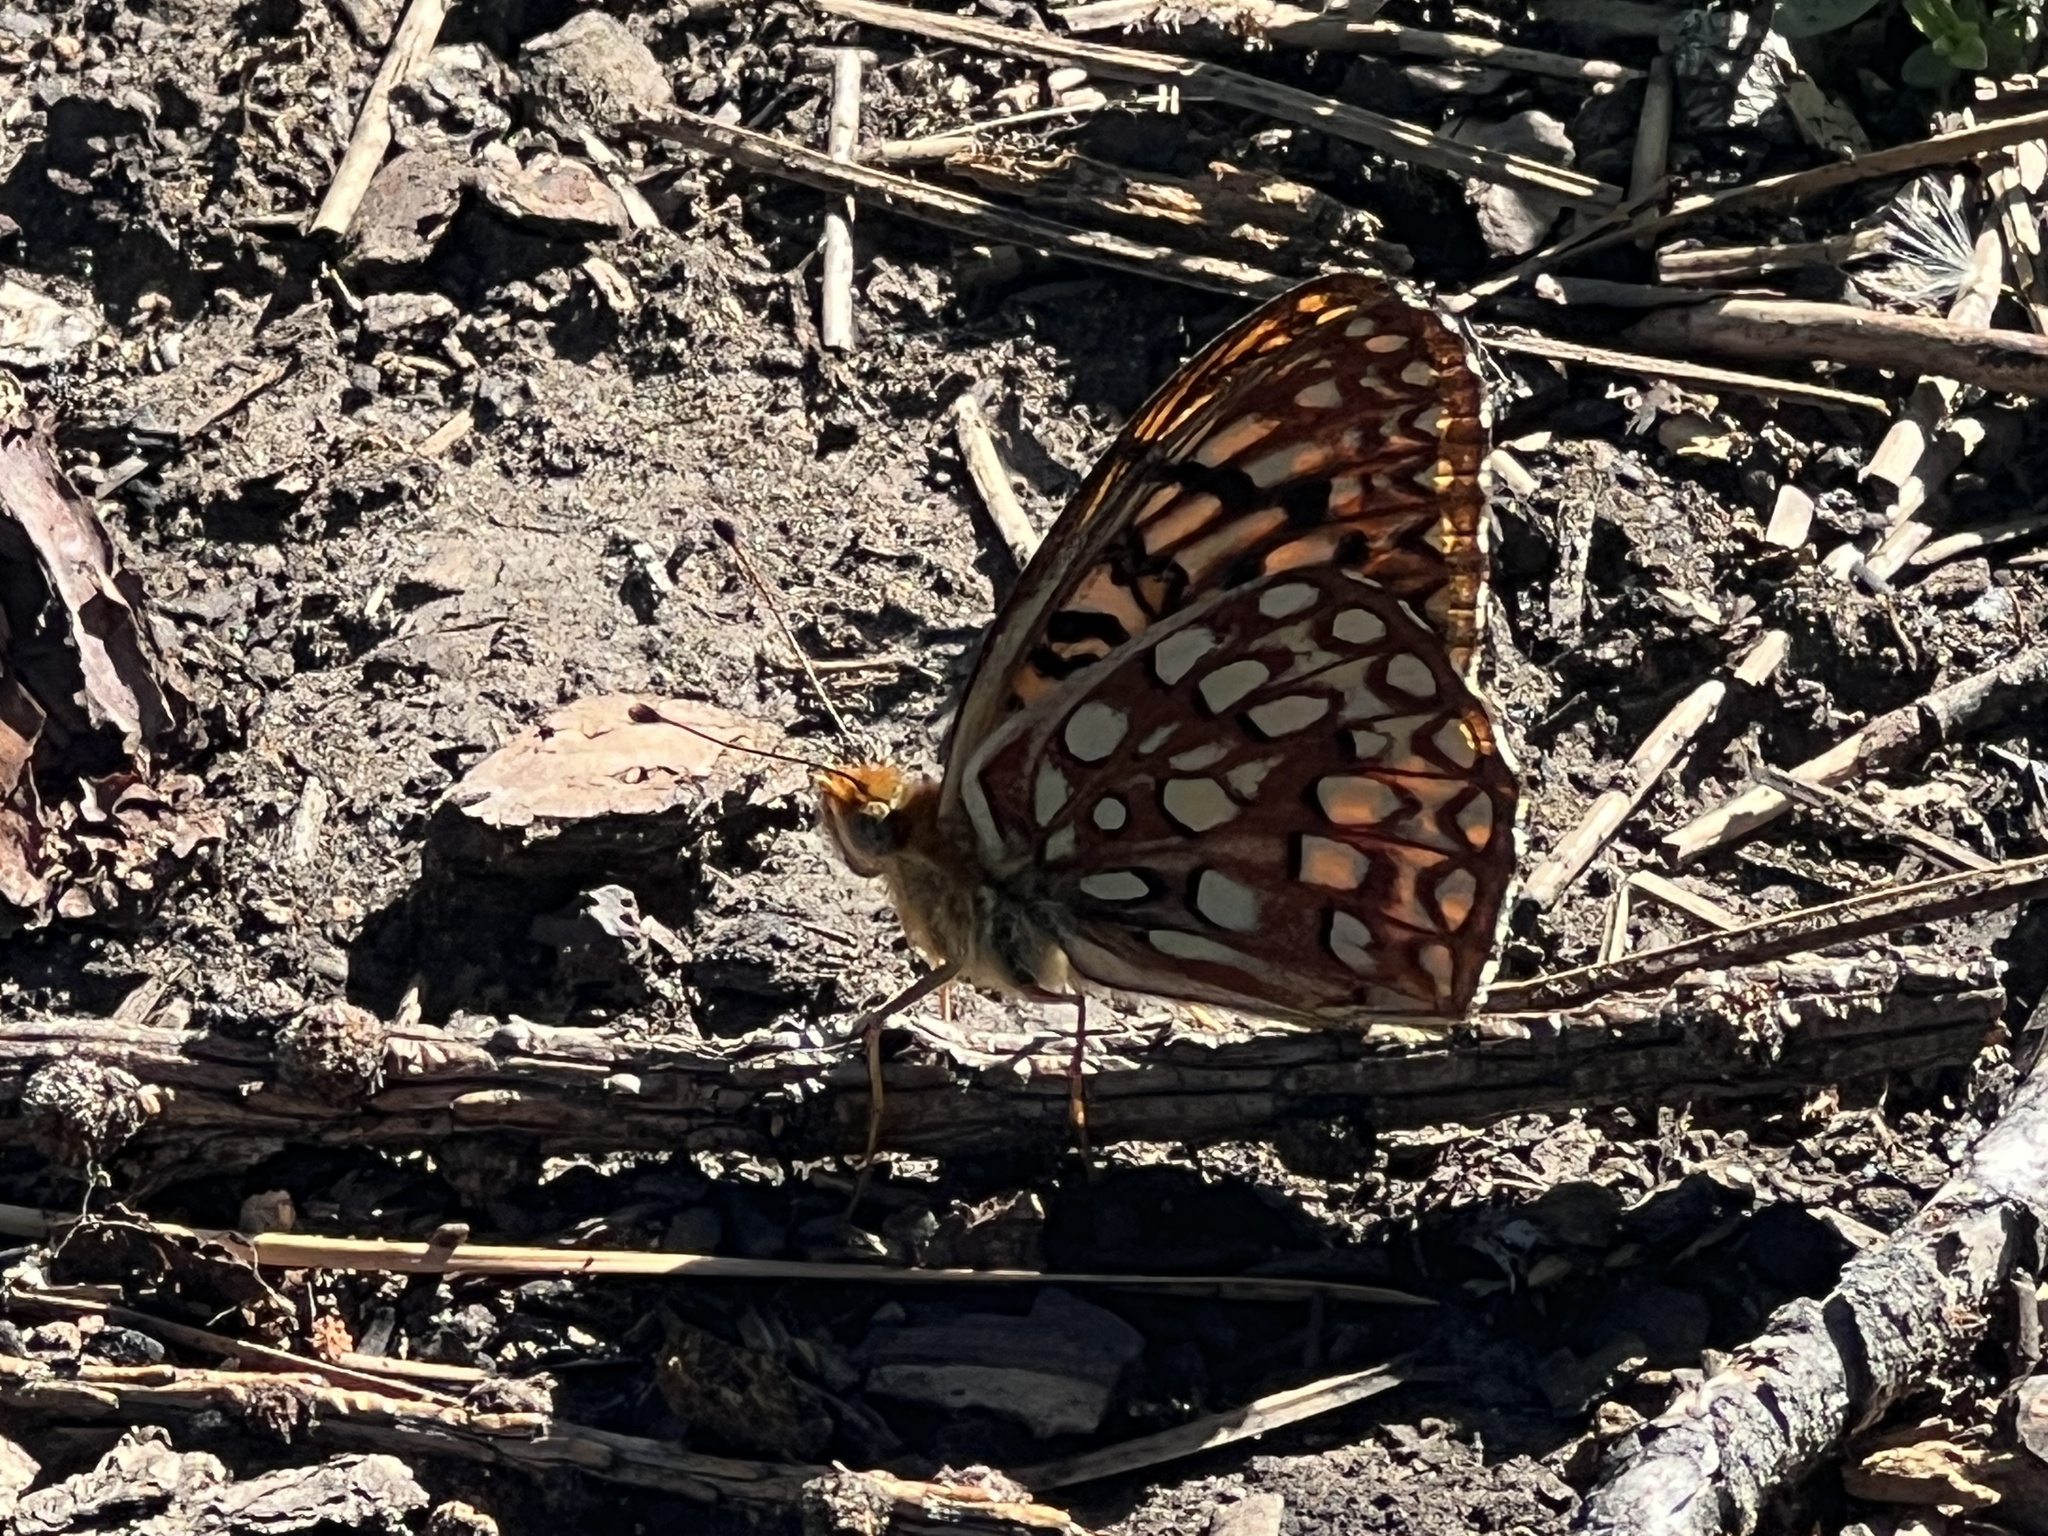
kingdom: Animalia
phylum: Arthropoda
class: Insecta
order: Lepidoptera
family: Nymphalidae
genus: Speyeria
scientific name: Speyeria atlantis
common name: Atlantis fritillary
